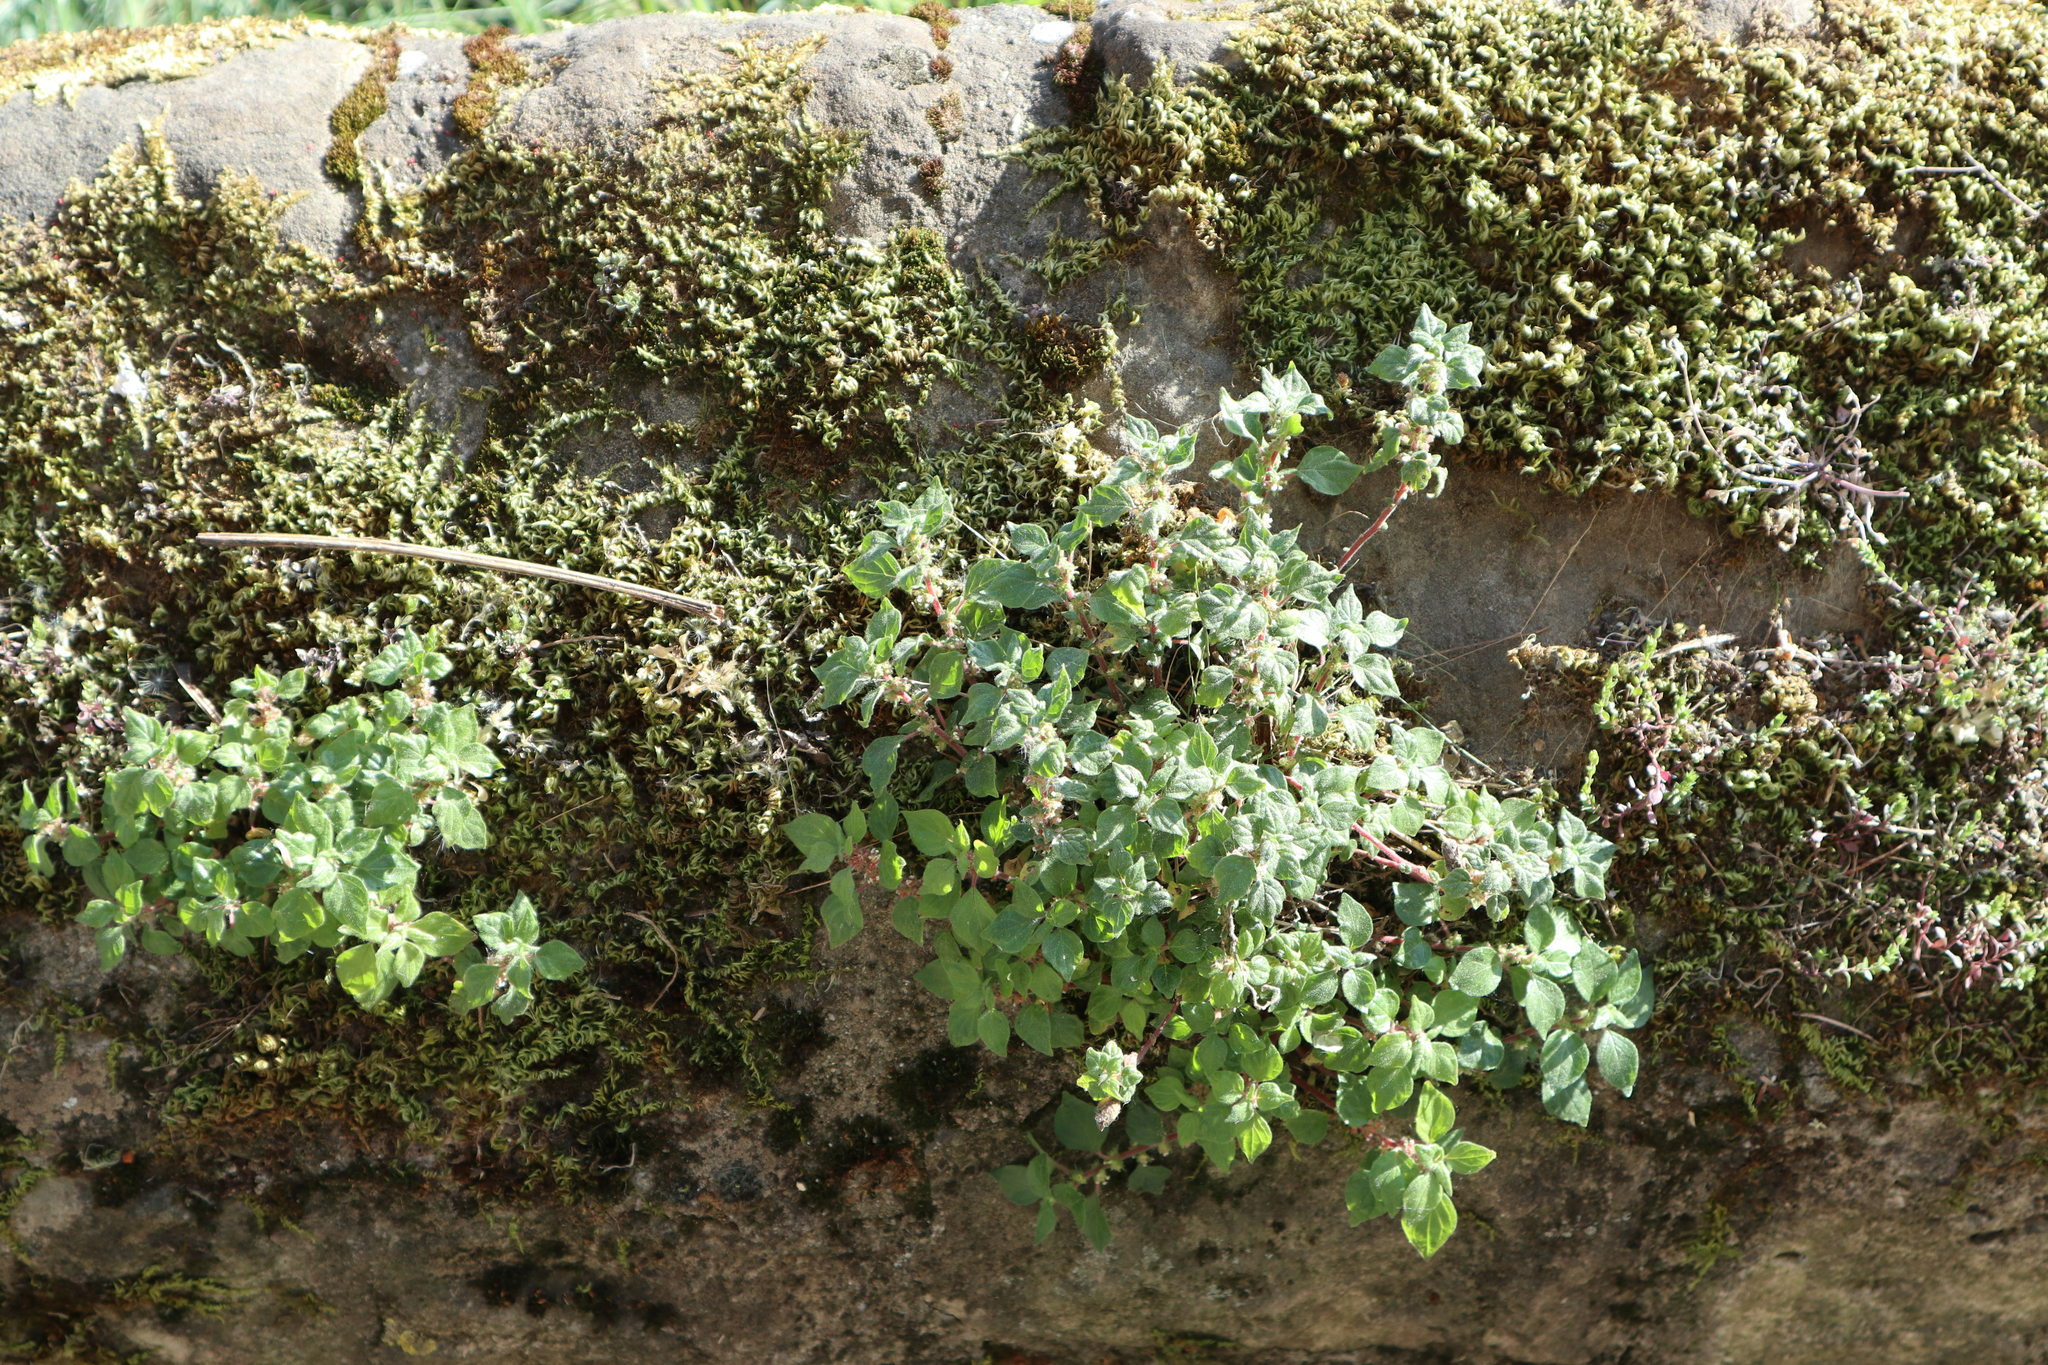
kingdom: Plantae
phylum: Tracheophyta
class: Magnoliopsida
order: Rosales
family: Urticaceae
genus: Parietaria
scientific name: Parietaria judaica
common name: Pellitory-of-the-wall
